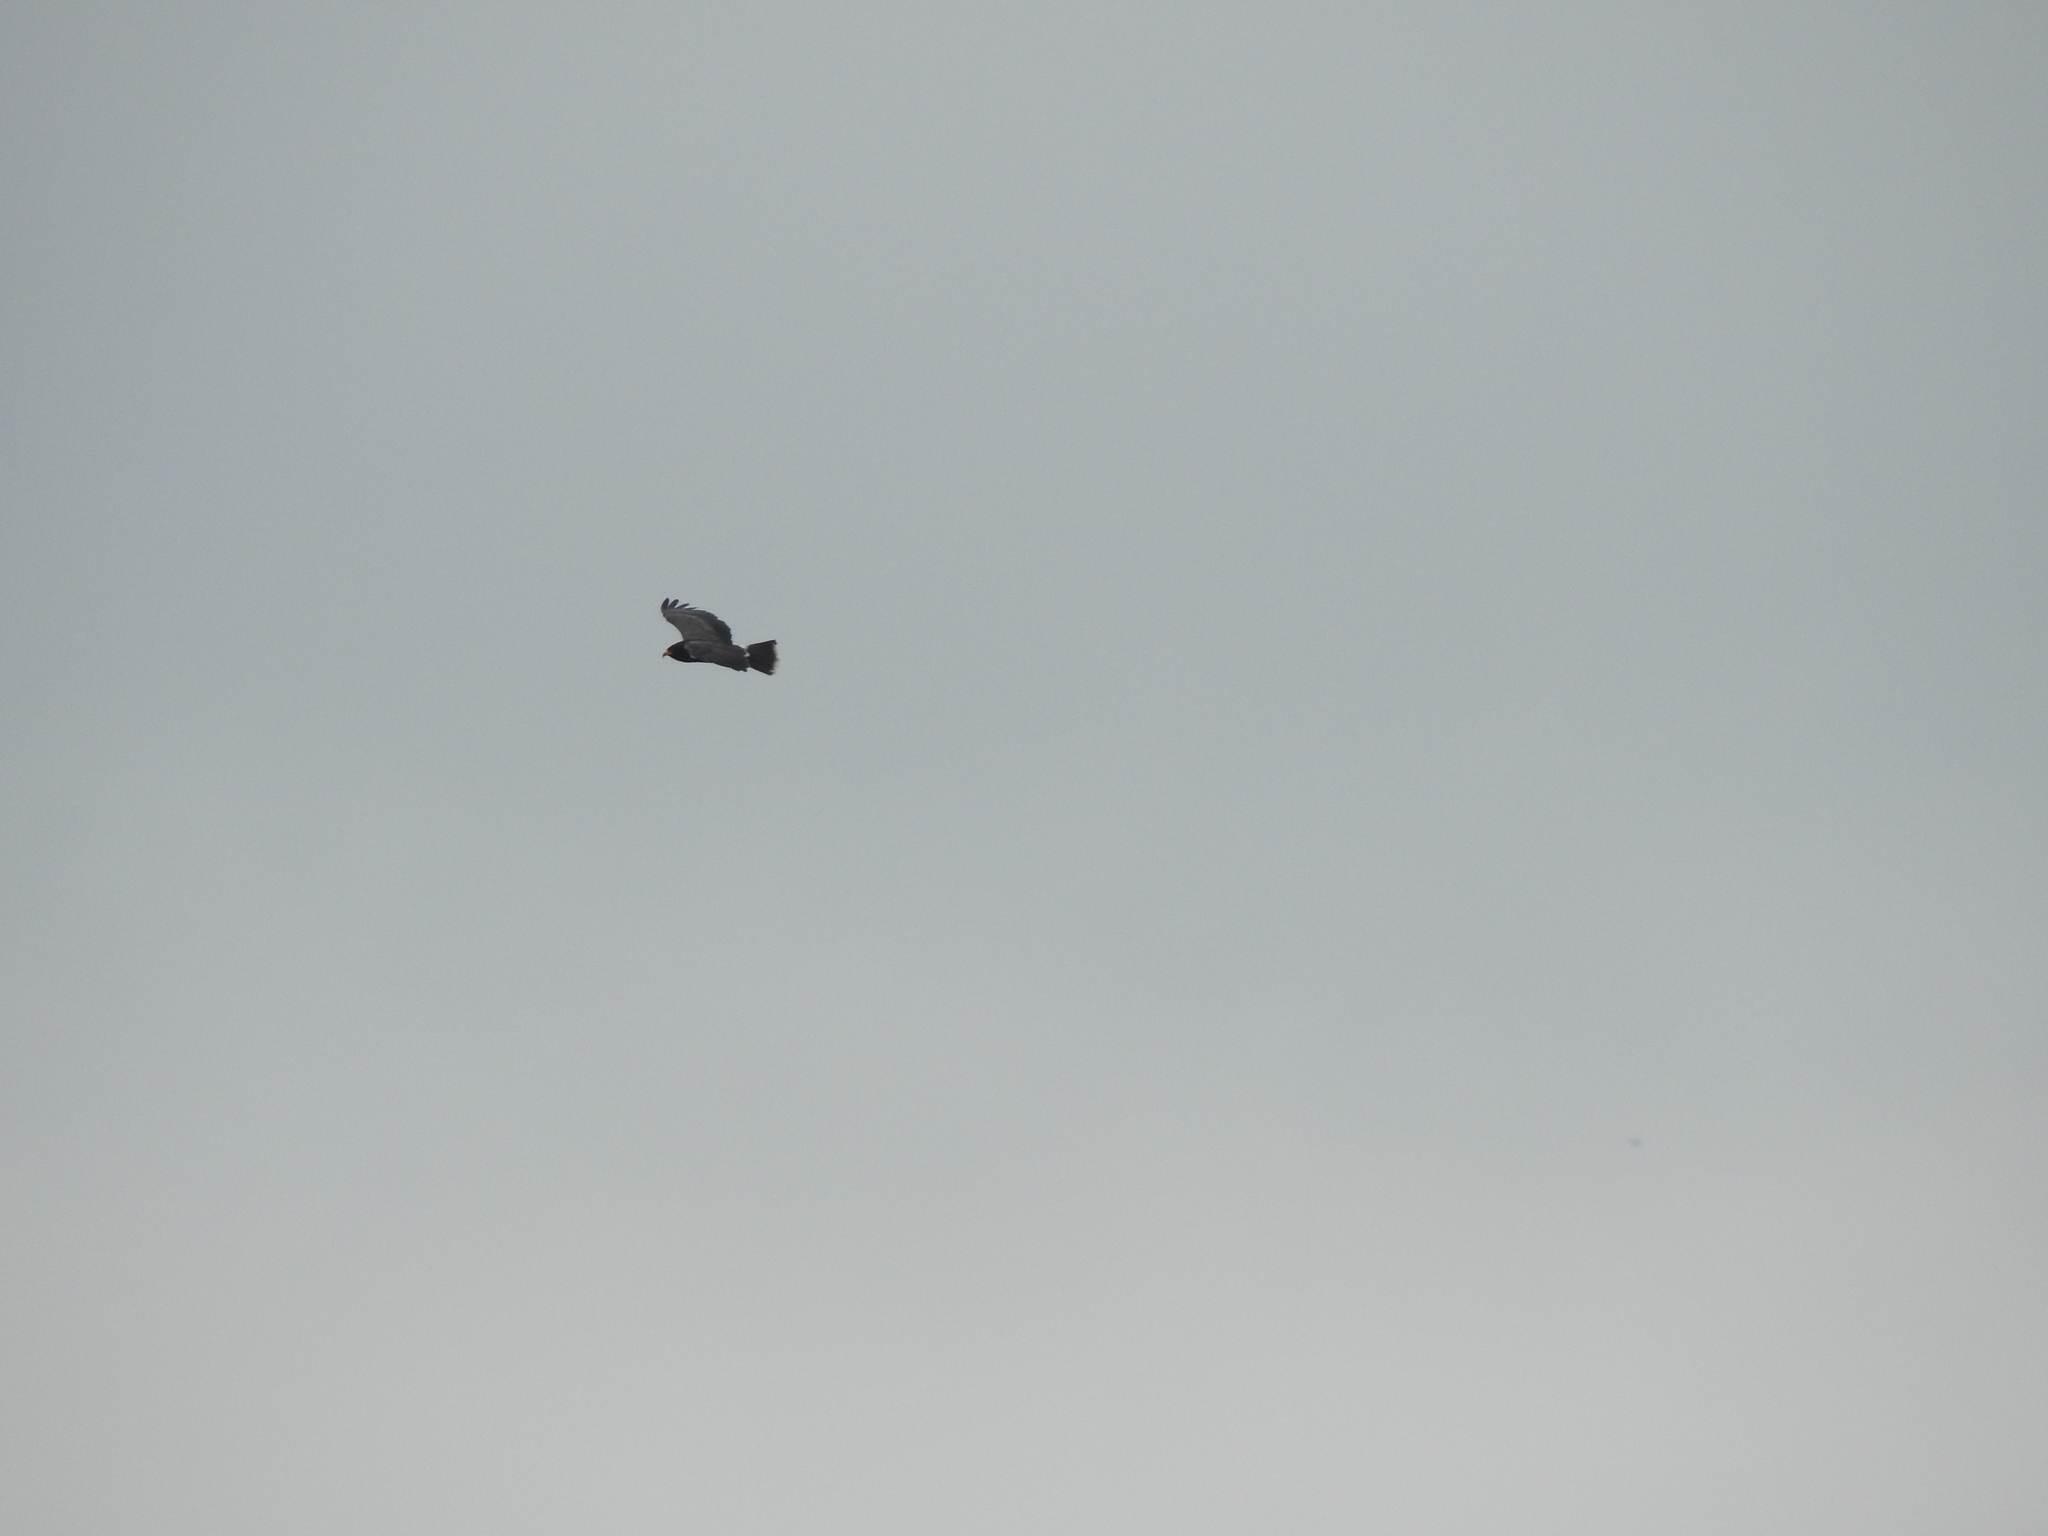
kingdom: Animalia
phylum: Chordata
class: Aves
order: Accipitriformes
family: Accipitridae
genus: Rostrhamus
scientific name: Rostrhamus sociabilis
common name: Snail kite
